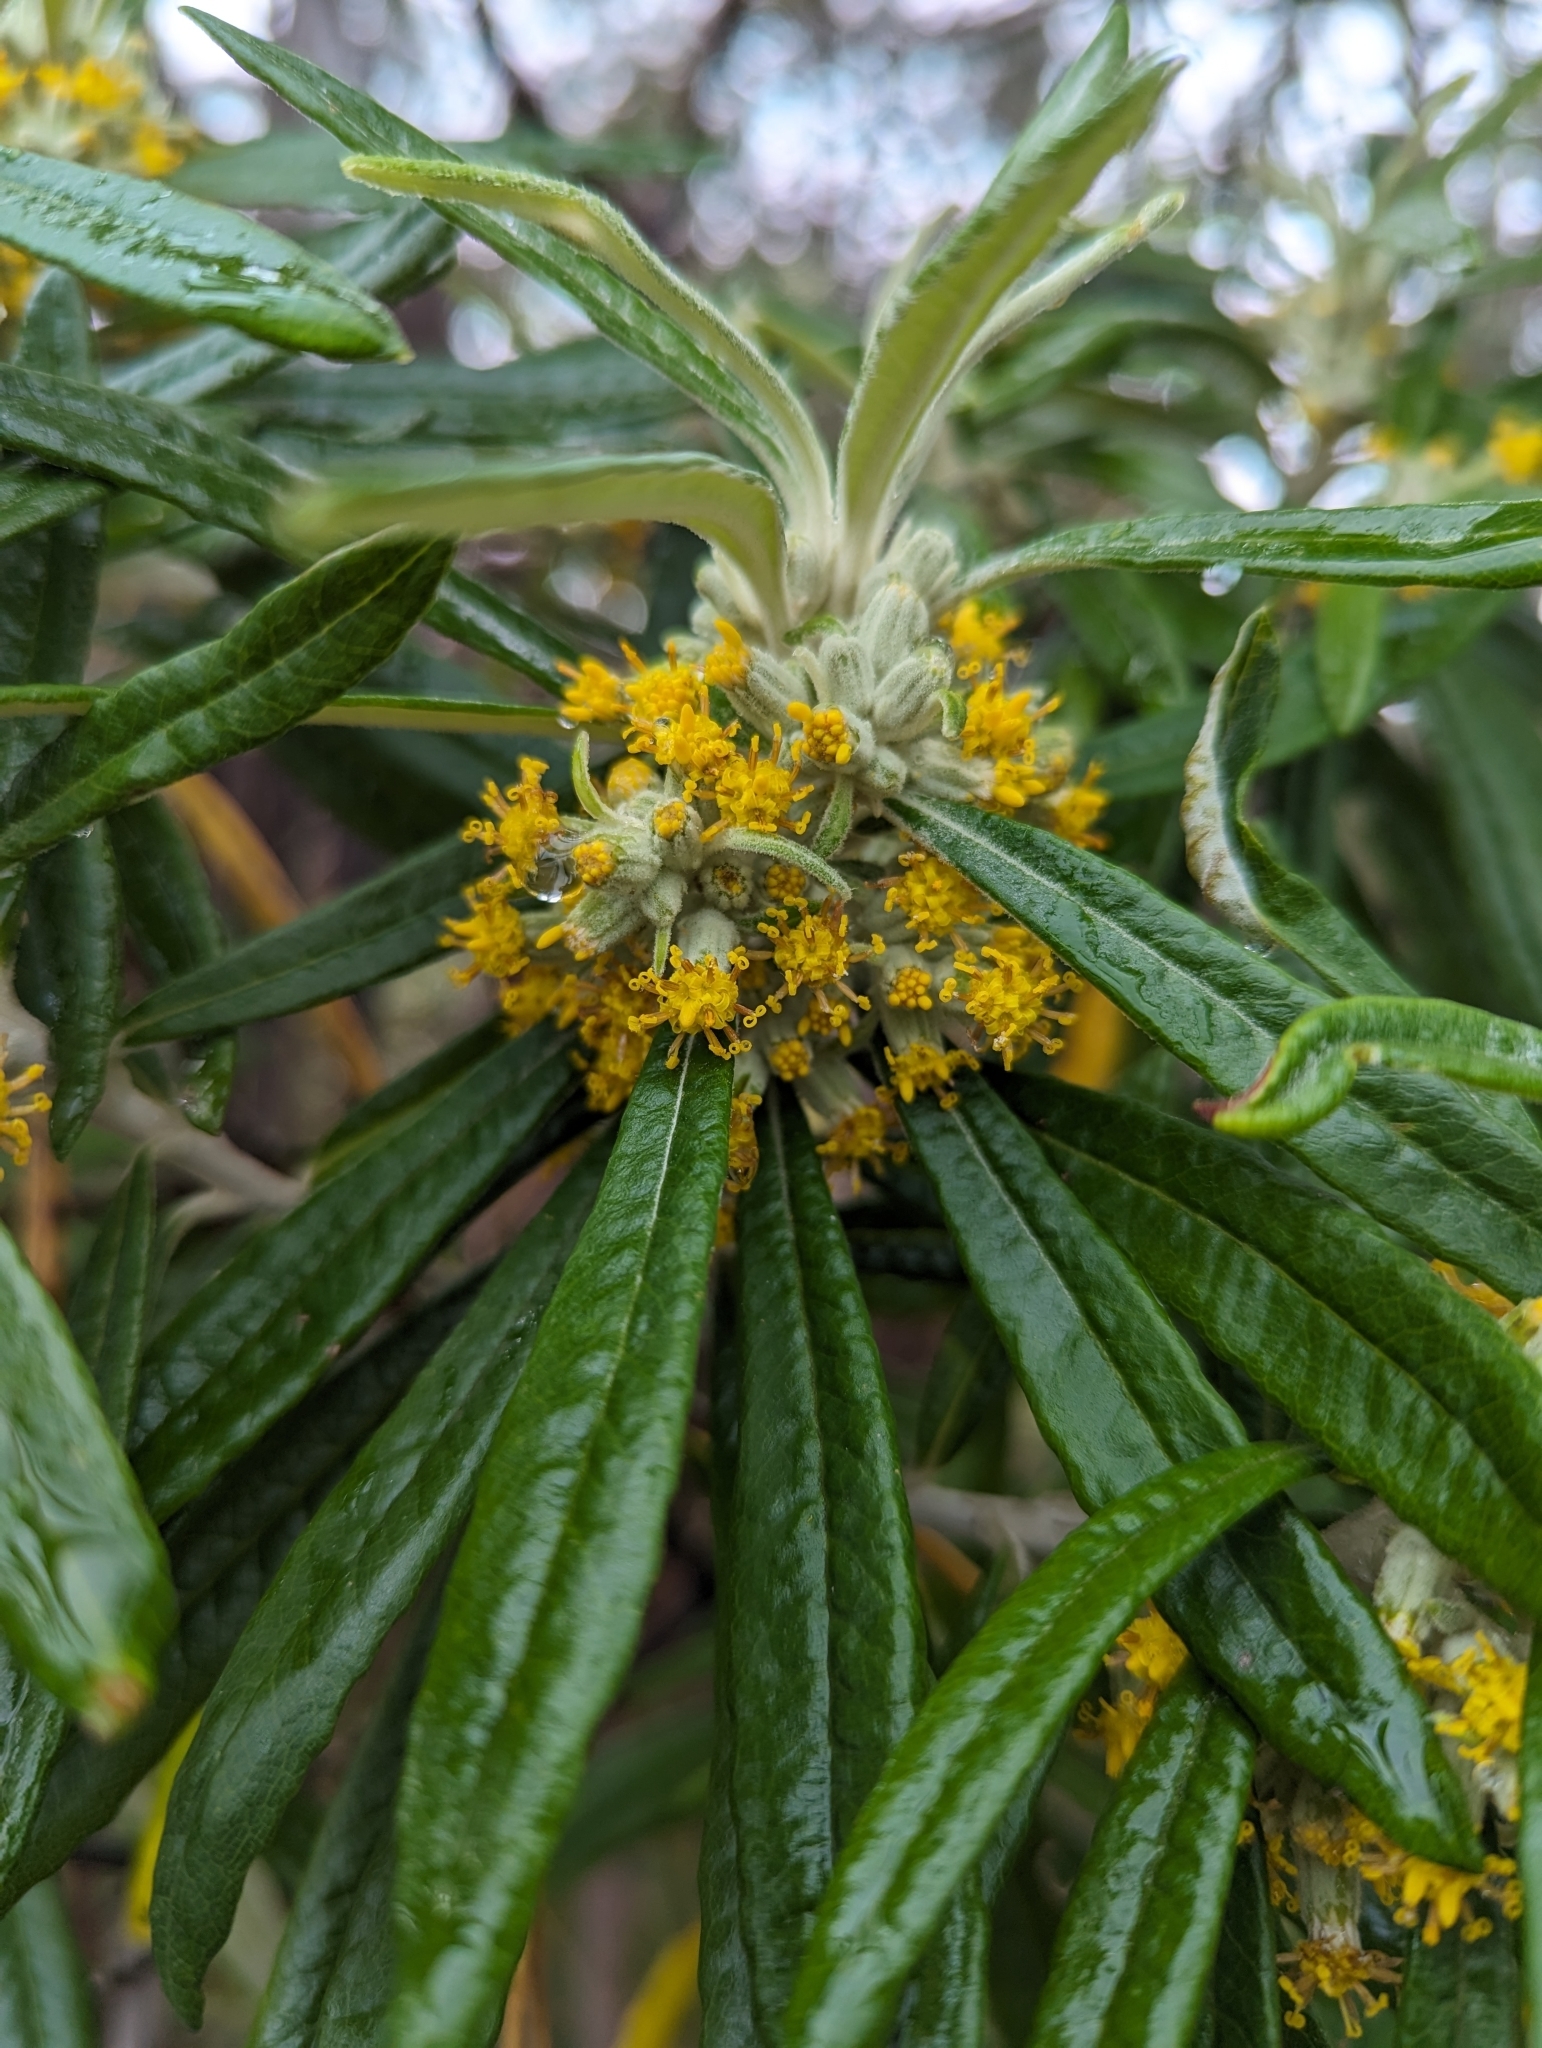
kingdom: Plantae
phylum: Tracheophyta
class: Magnoliopsida
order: Asterales
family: Asteraceae
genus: Bedfordia
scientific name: Bedfordia salicina
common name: Blanketleaf
